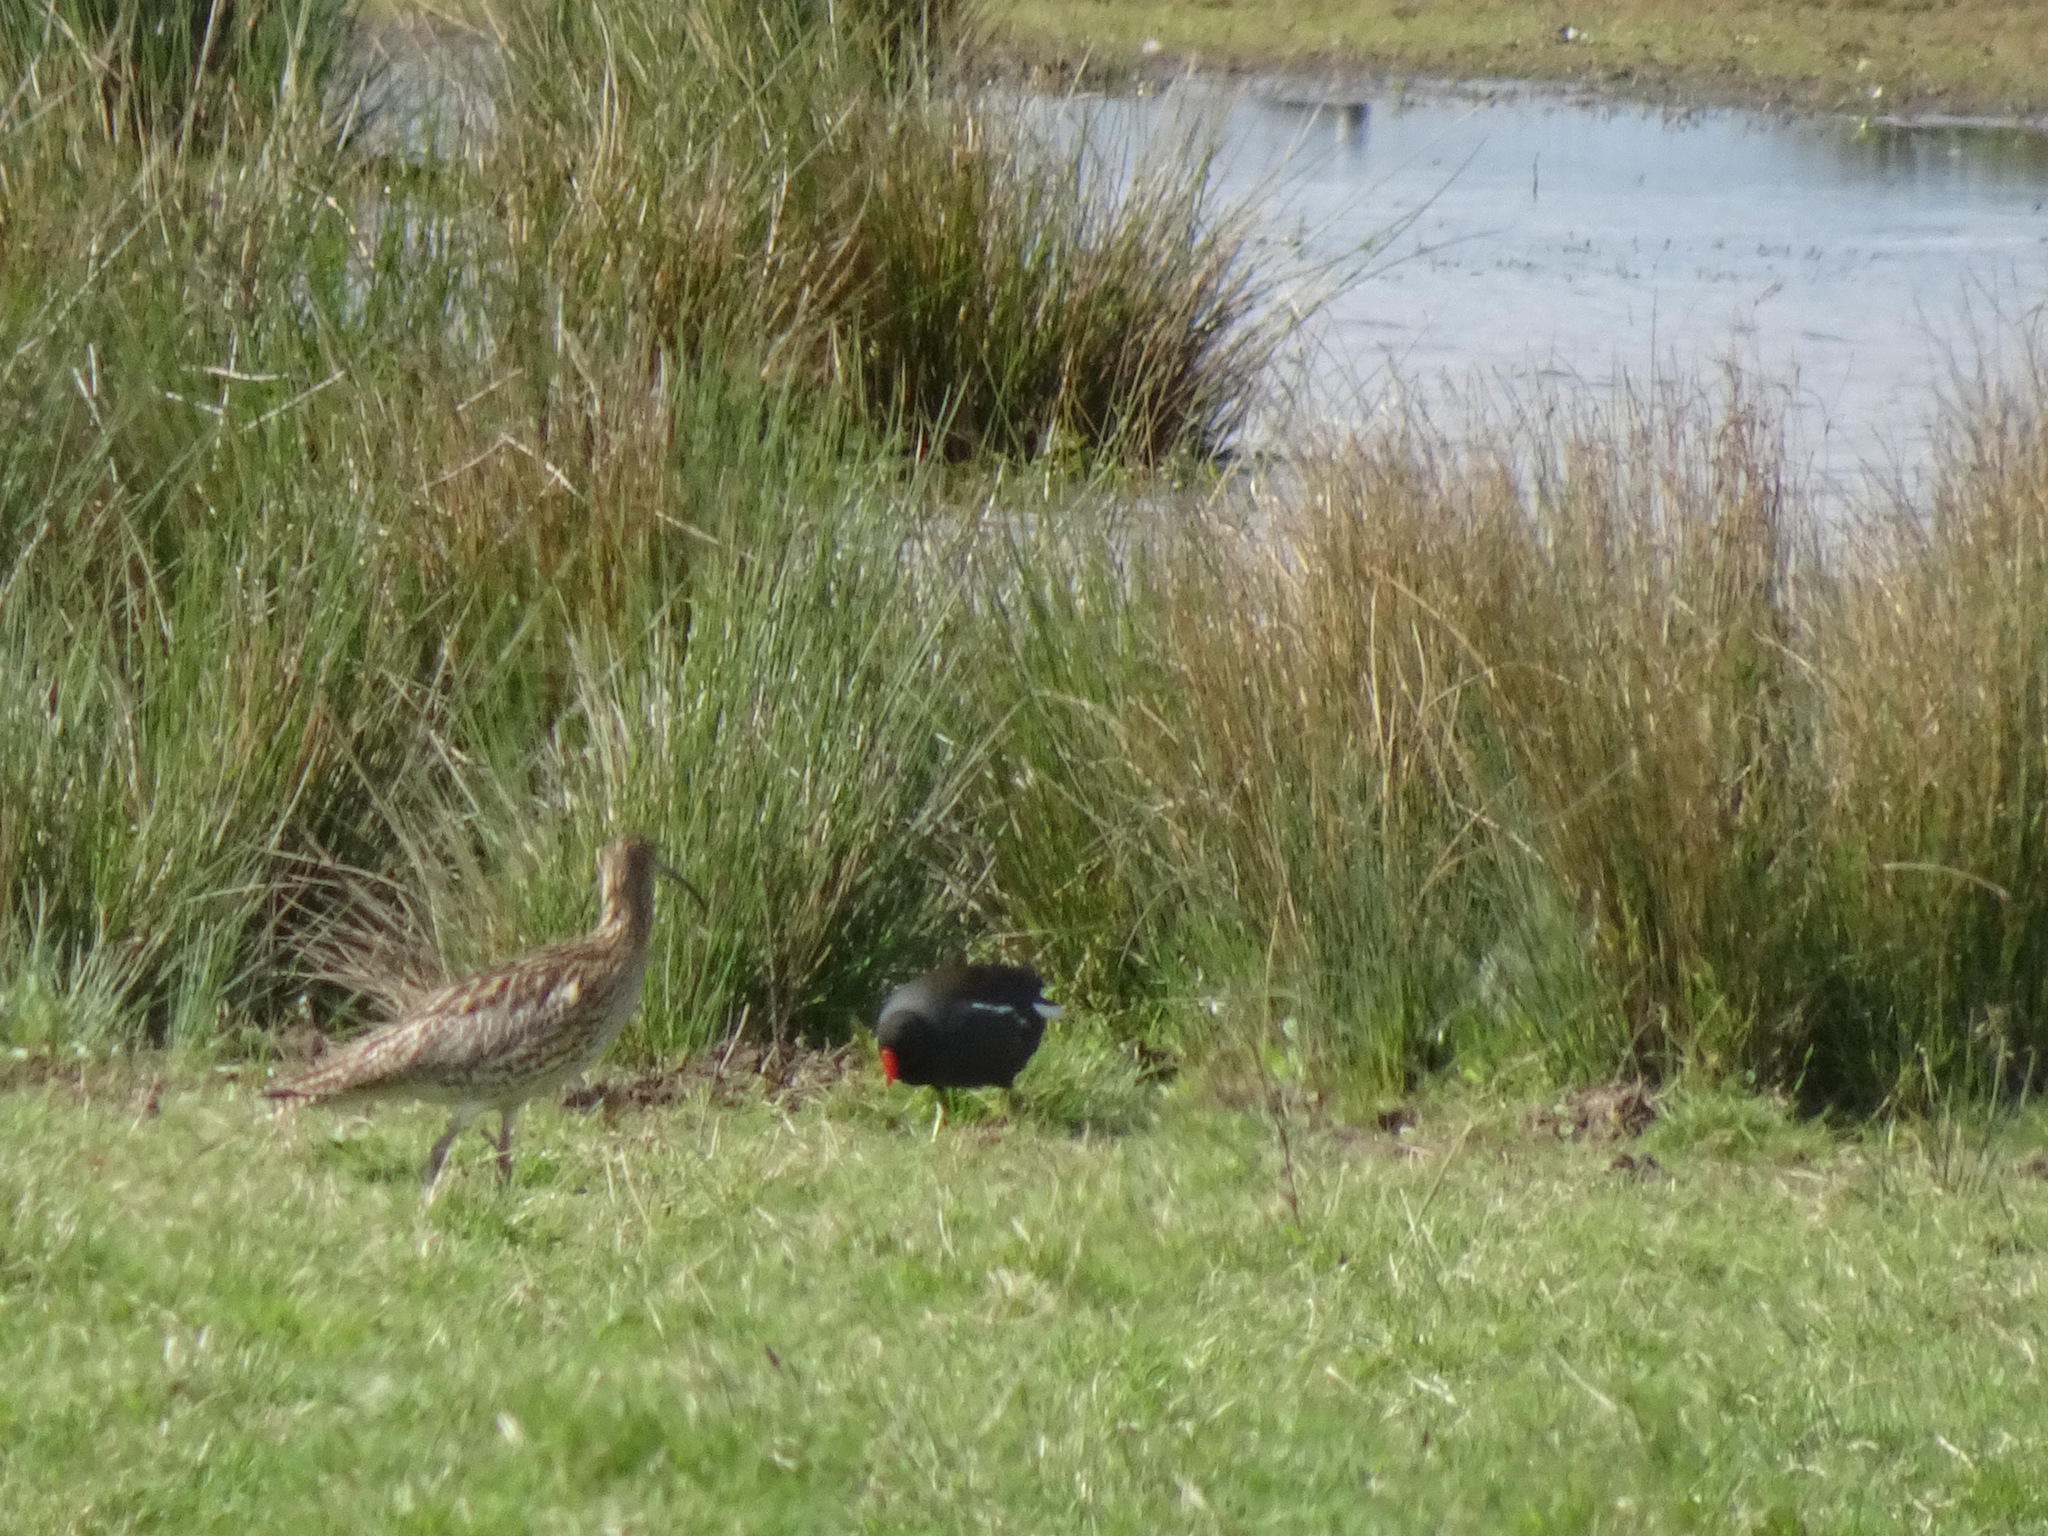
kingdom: Animalia
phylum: Chordata
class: Aves
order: Gruiformes
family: Rallidae
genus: Gallinula
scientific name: Gallinula chloropus
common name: Common moorhen
